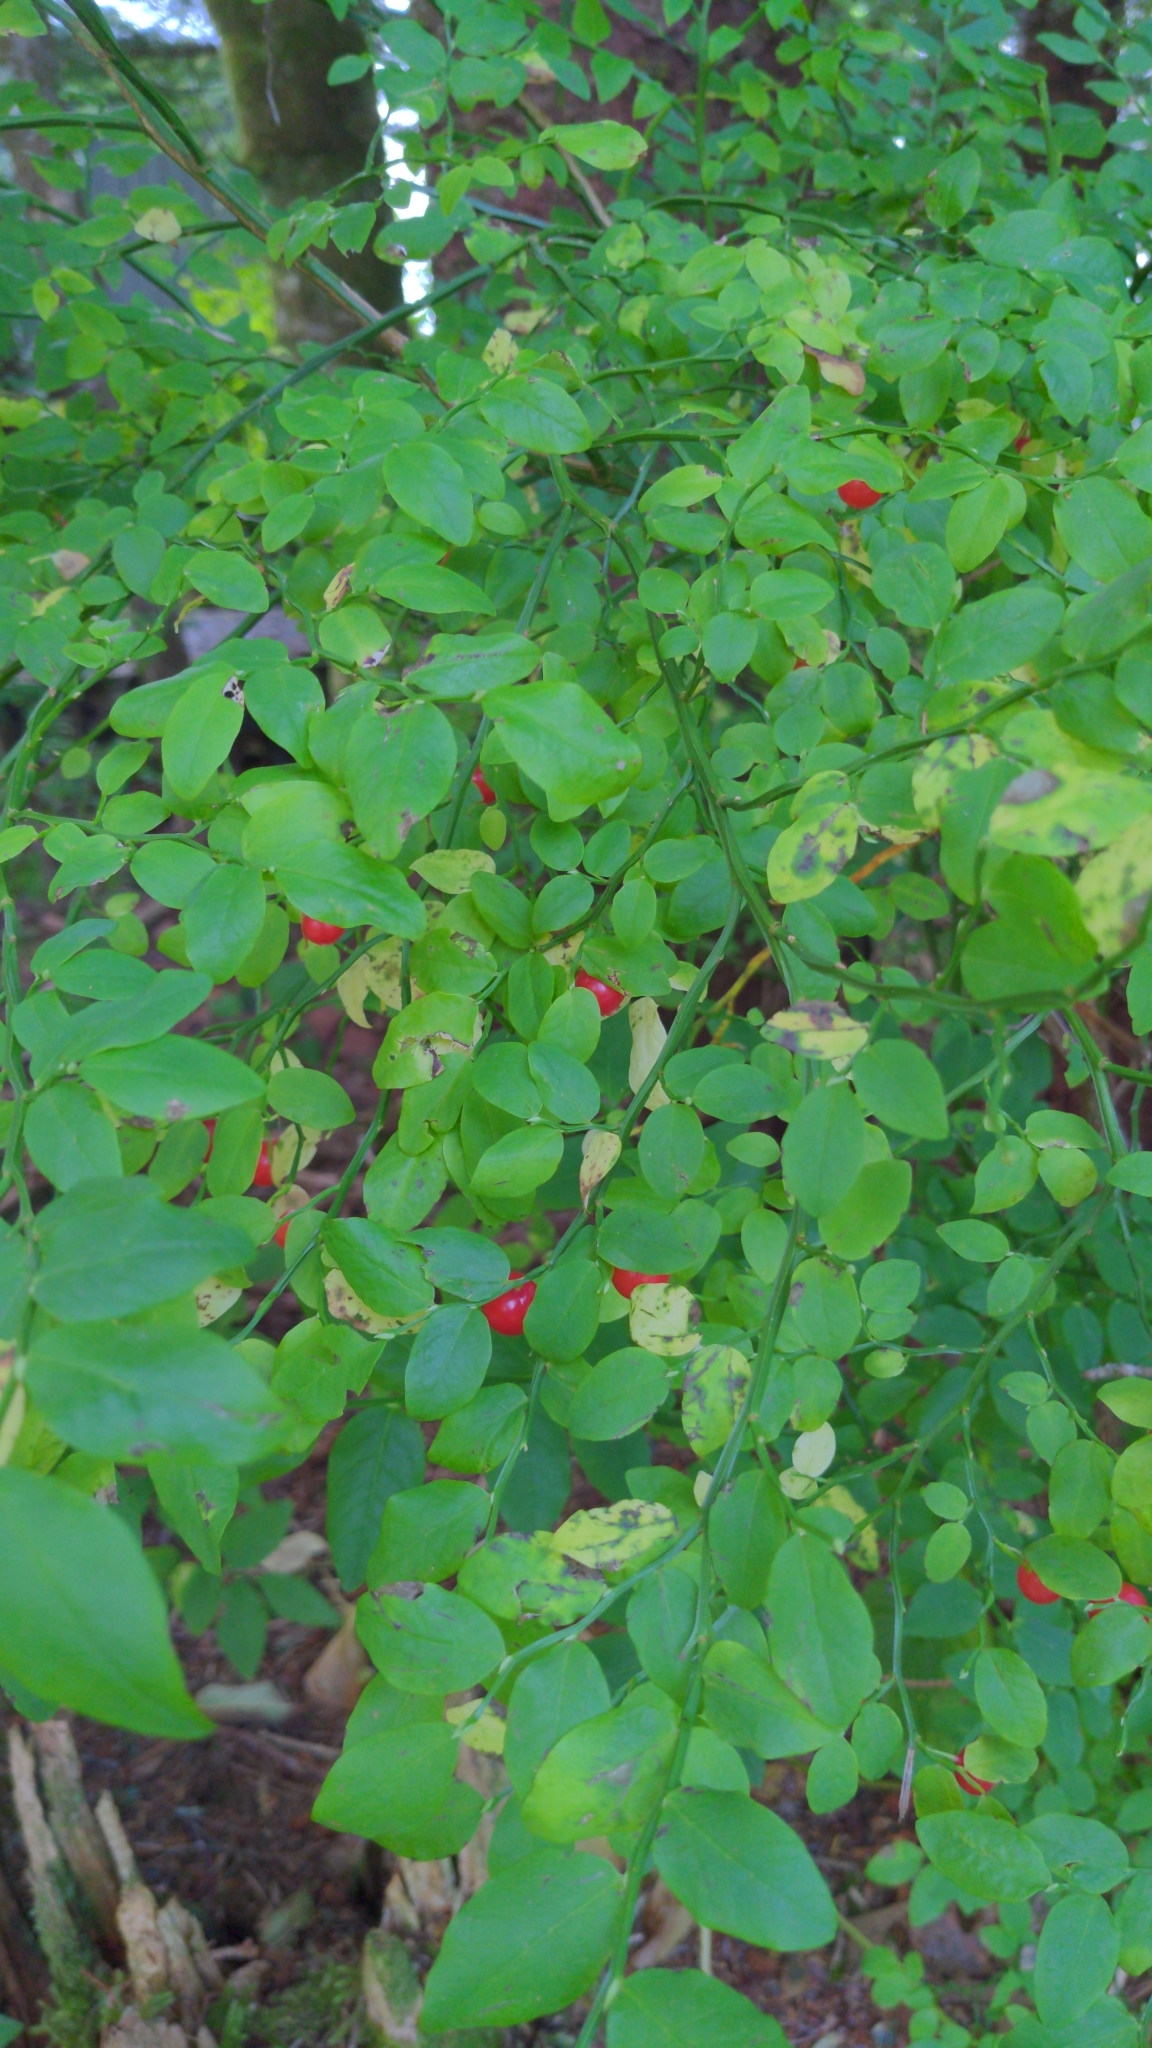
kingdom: Plantae
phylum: Tracheophyta
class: Magnoliopsida
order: Ericales
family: Ericaceae
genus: Vaccinium
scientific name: Vaccinium parvifolium
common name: Red-huckleberry
